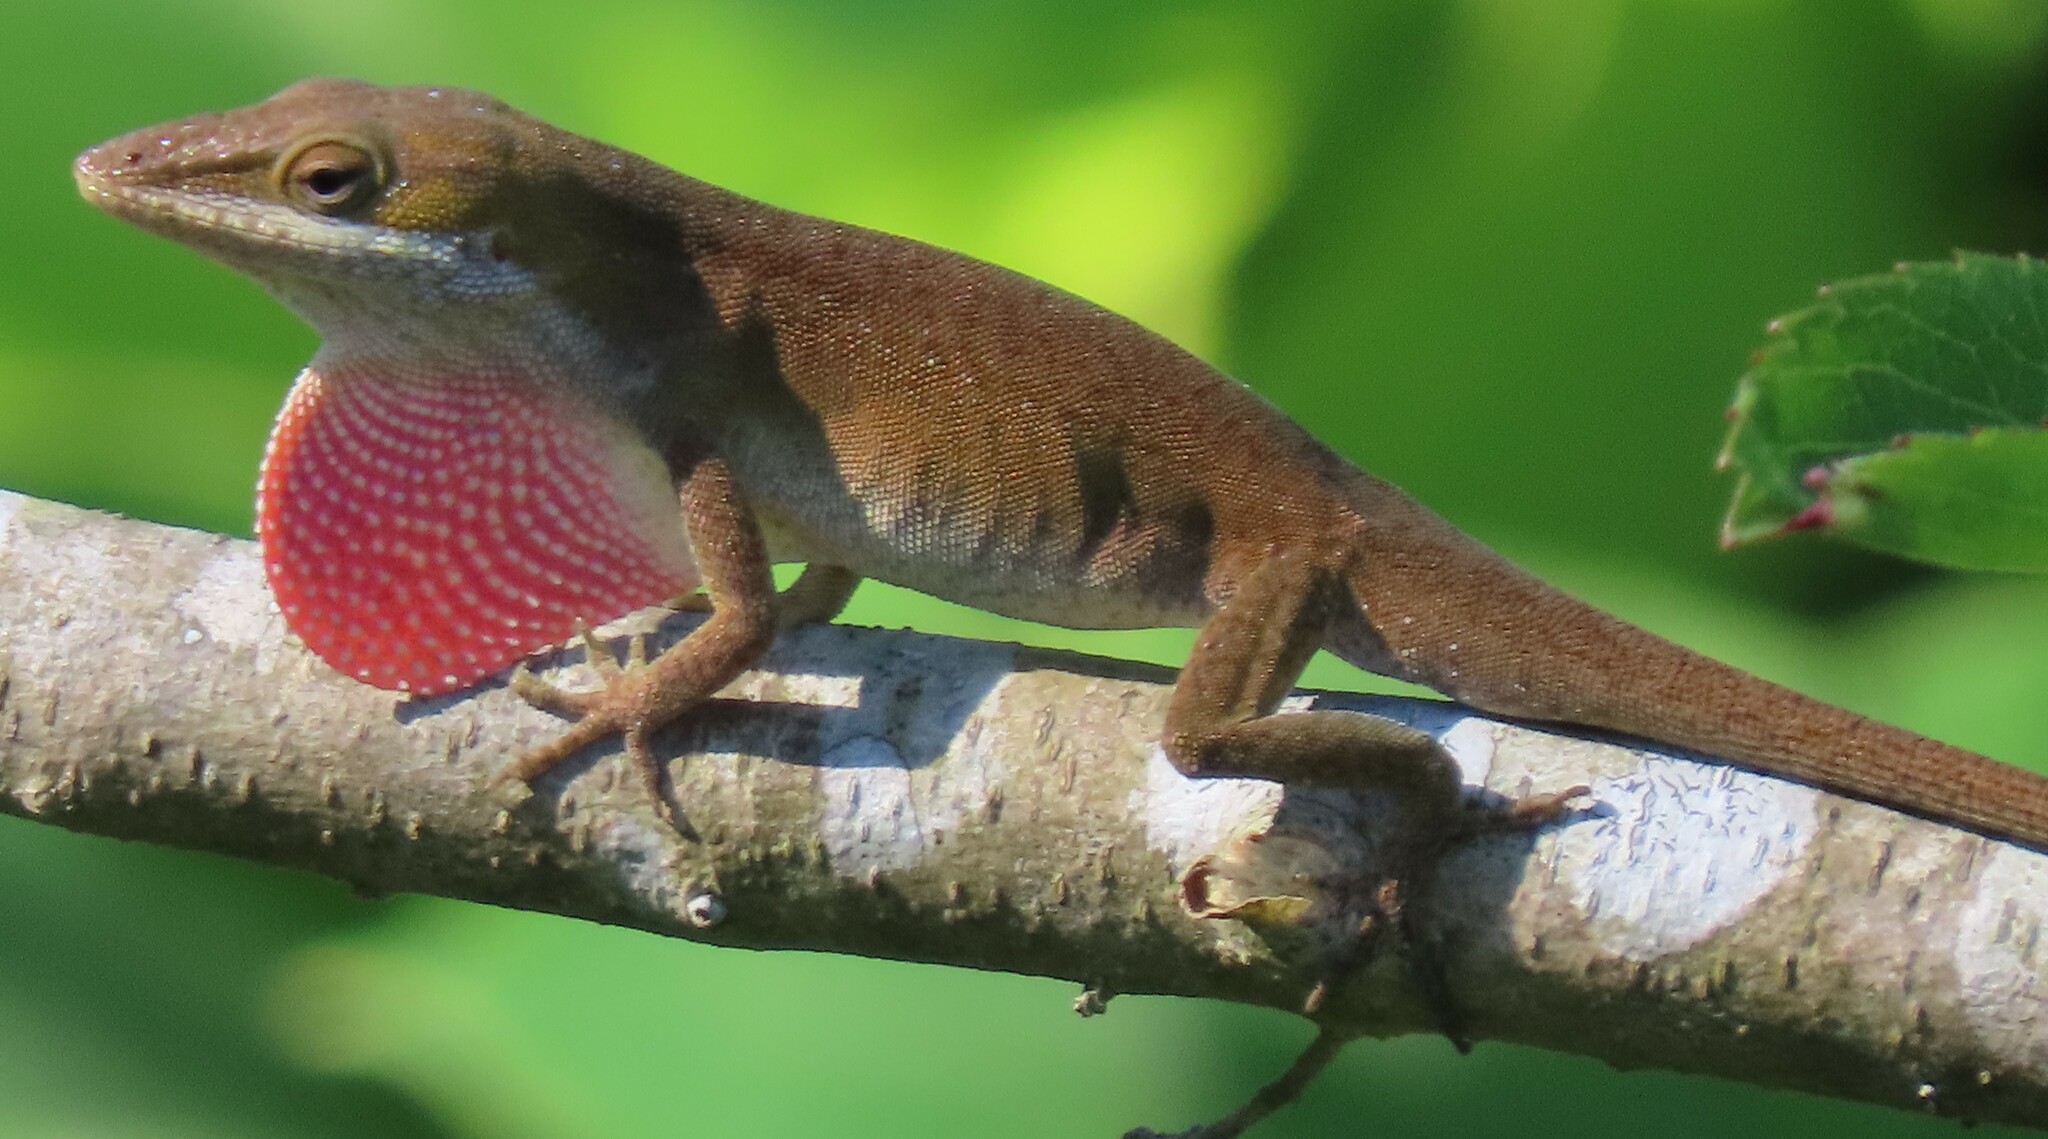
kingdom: Animalia
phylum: Chordata
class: Squamata
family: Dactyloidae
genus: Anolis
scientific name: Anolis carolinensis
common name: Green anole
